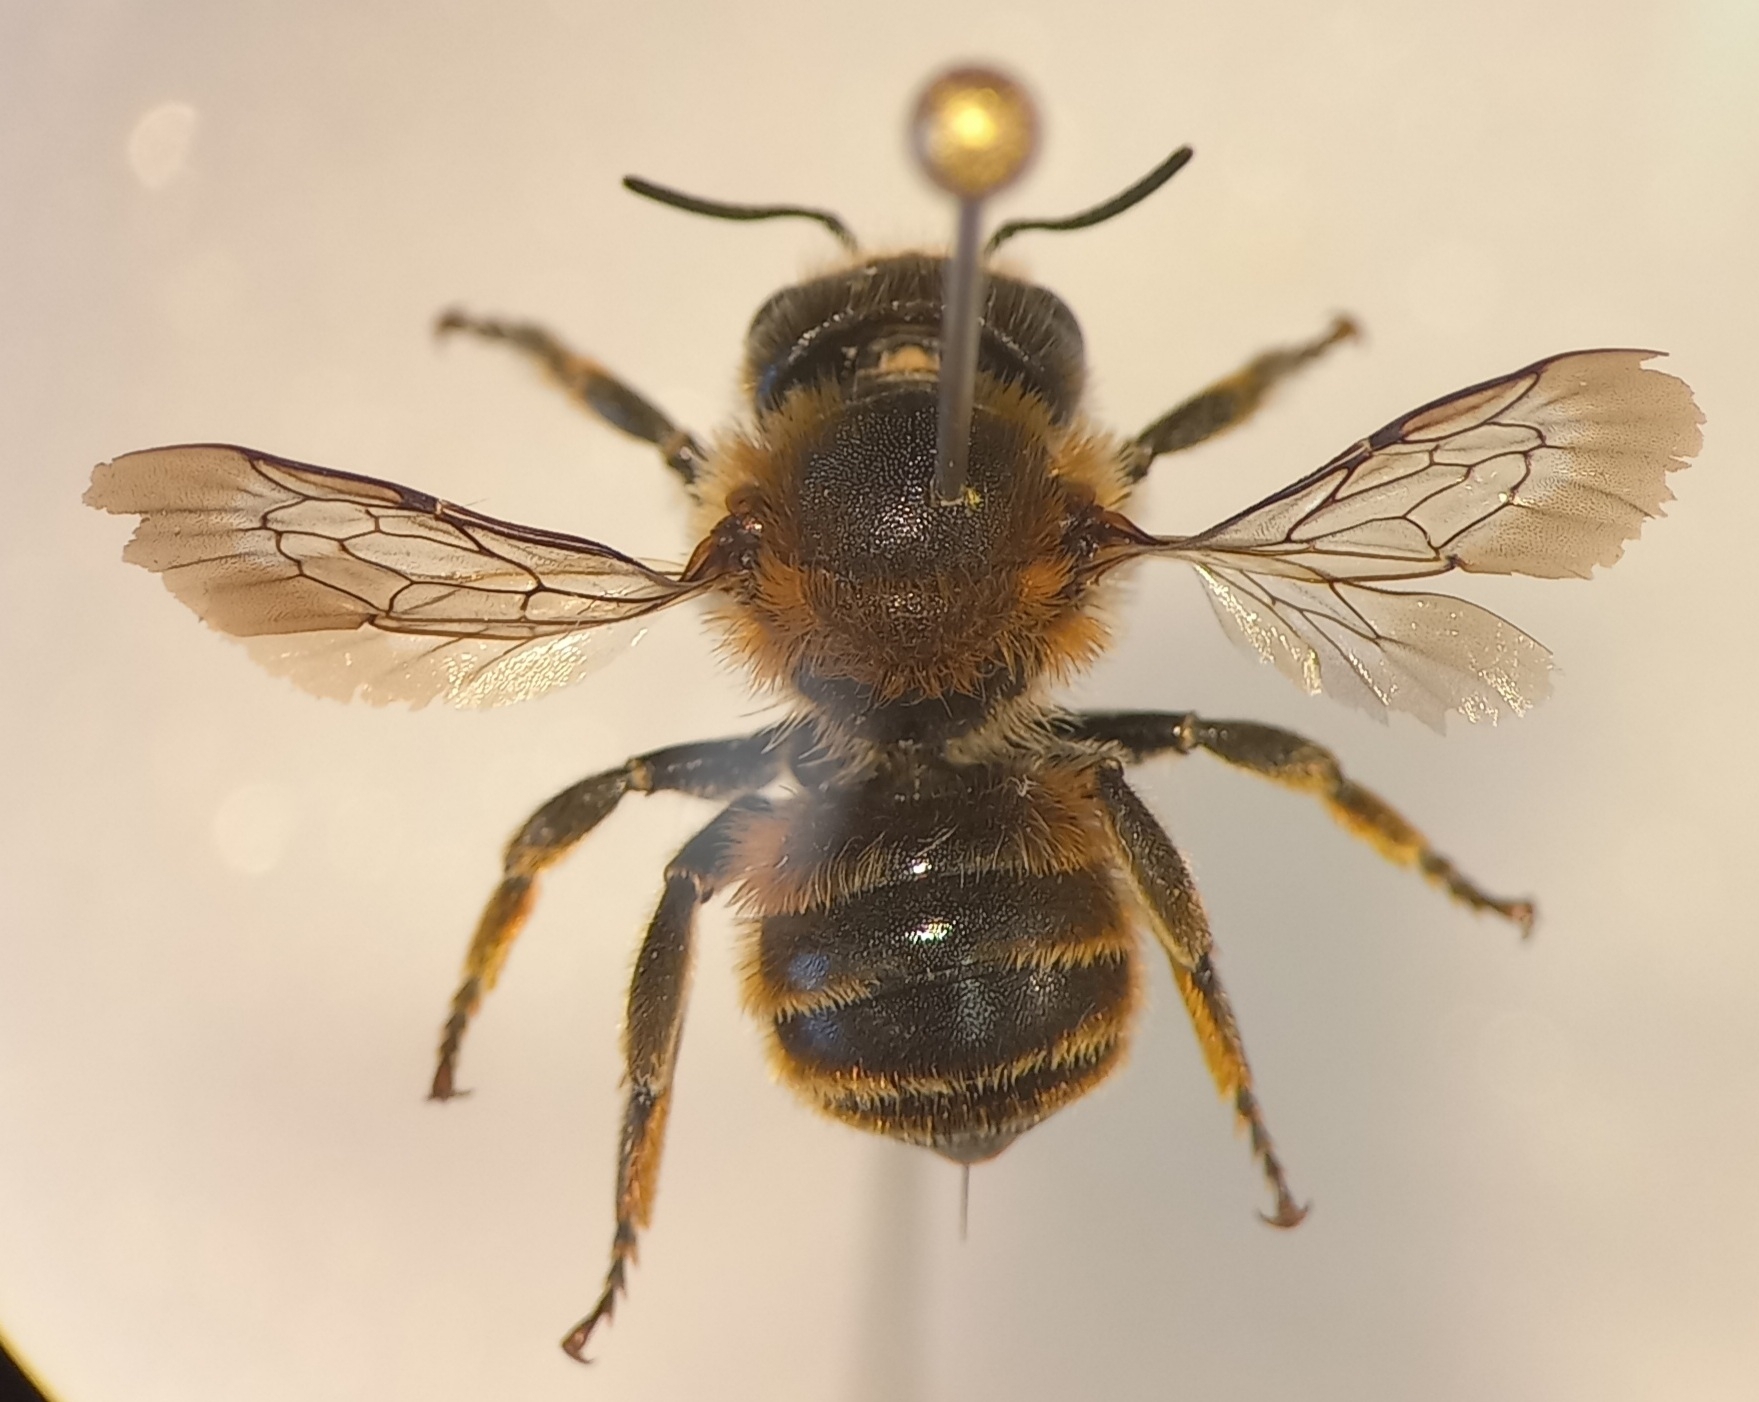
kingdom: Animalia
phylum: Arthropoda
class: Insecta
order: Hymenoptera
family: Megachilidae
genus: Osmia
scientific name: Osmia aurulenta
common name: Gold-fringed mason bee
